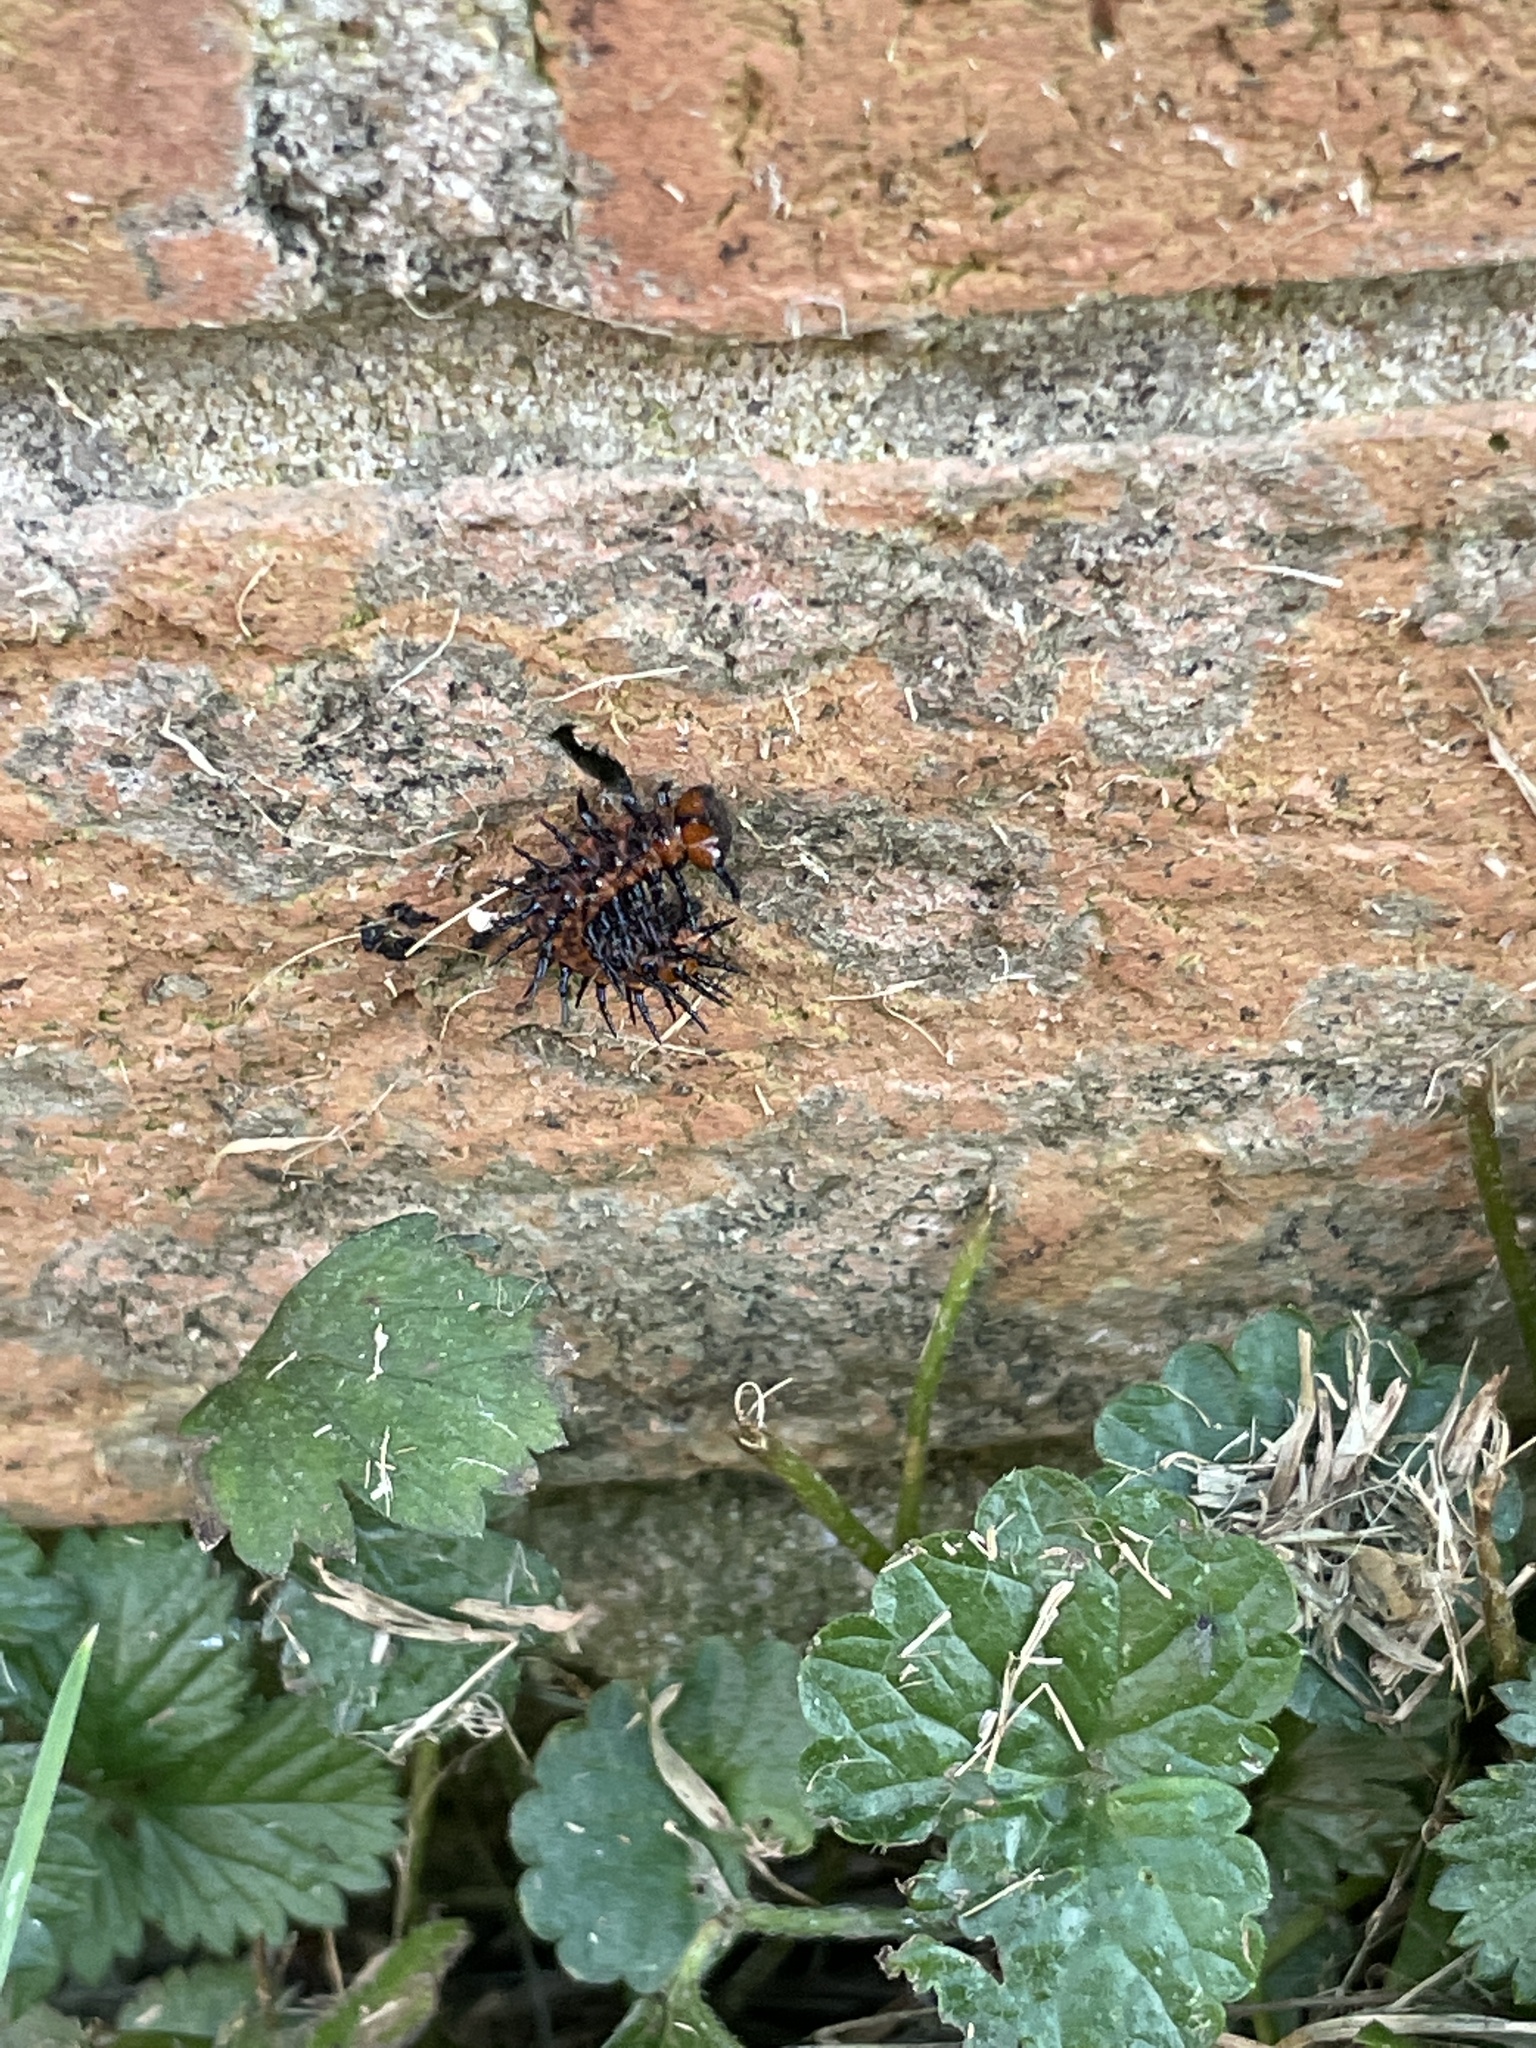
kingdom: Animalia
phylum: Arthropoda
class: Insecta
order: Lepidoptera
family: Nymphalidae
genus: Dione
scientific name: Dione vanillae
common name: Gulf fritillary
